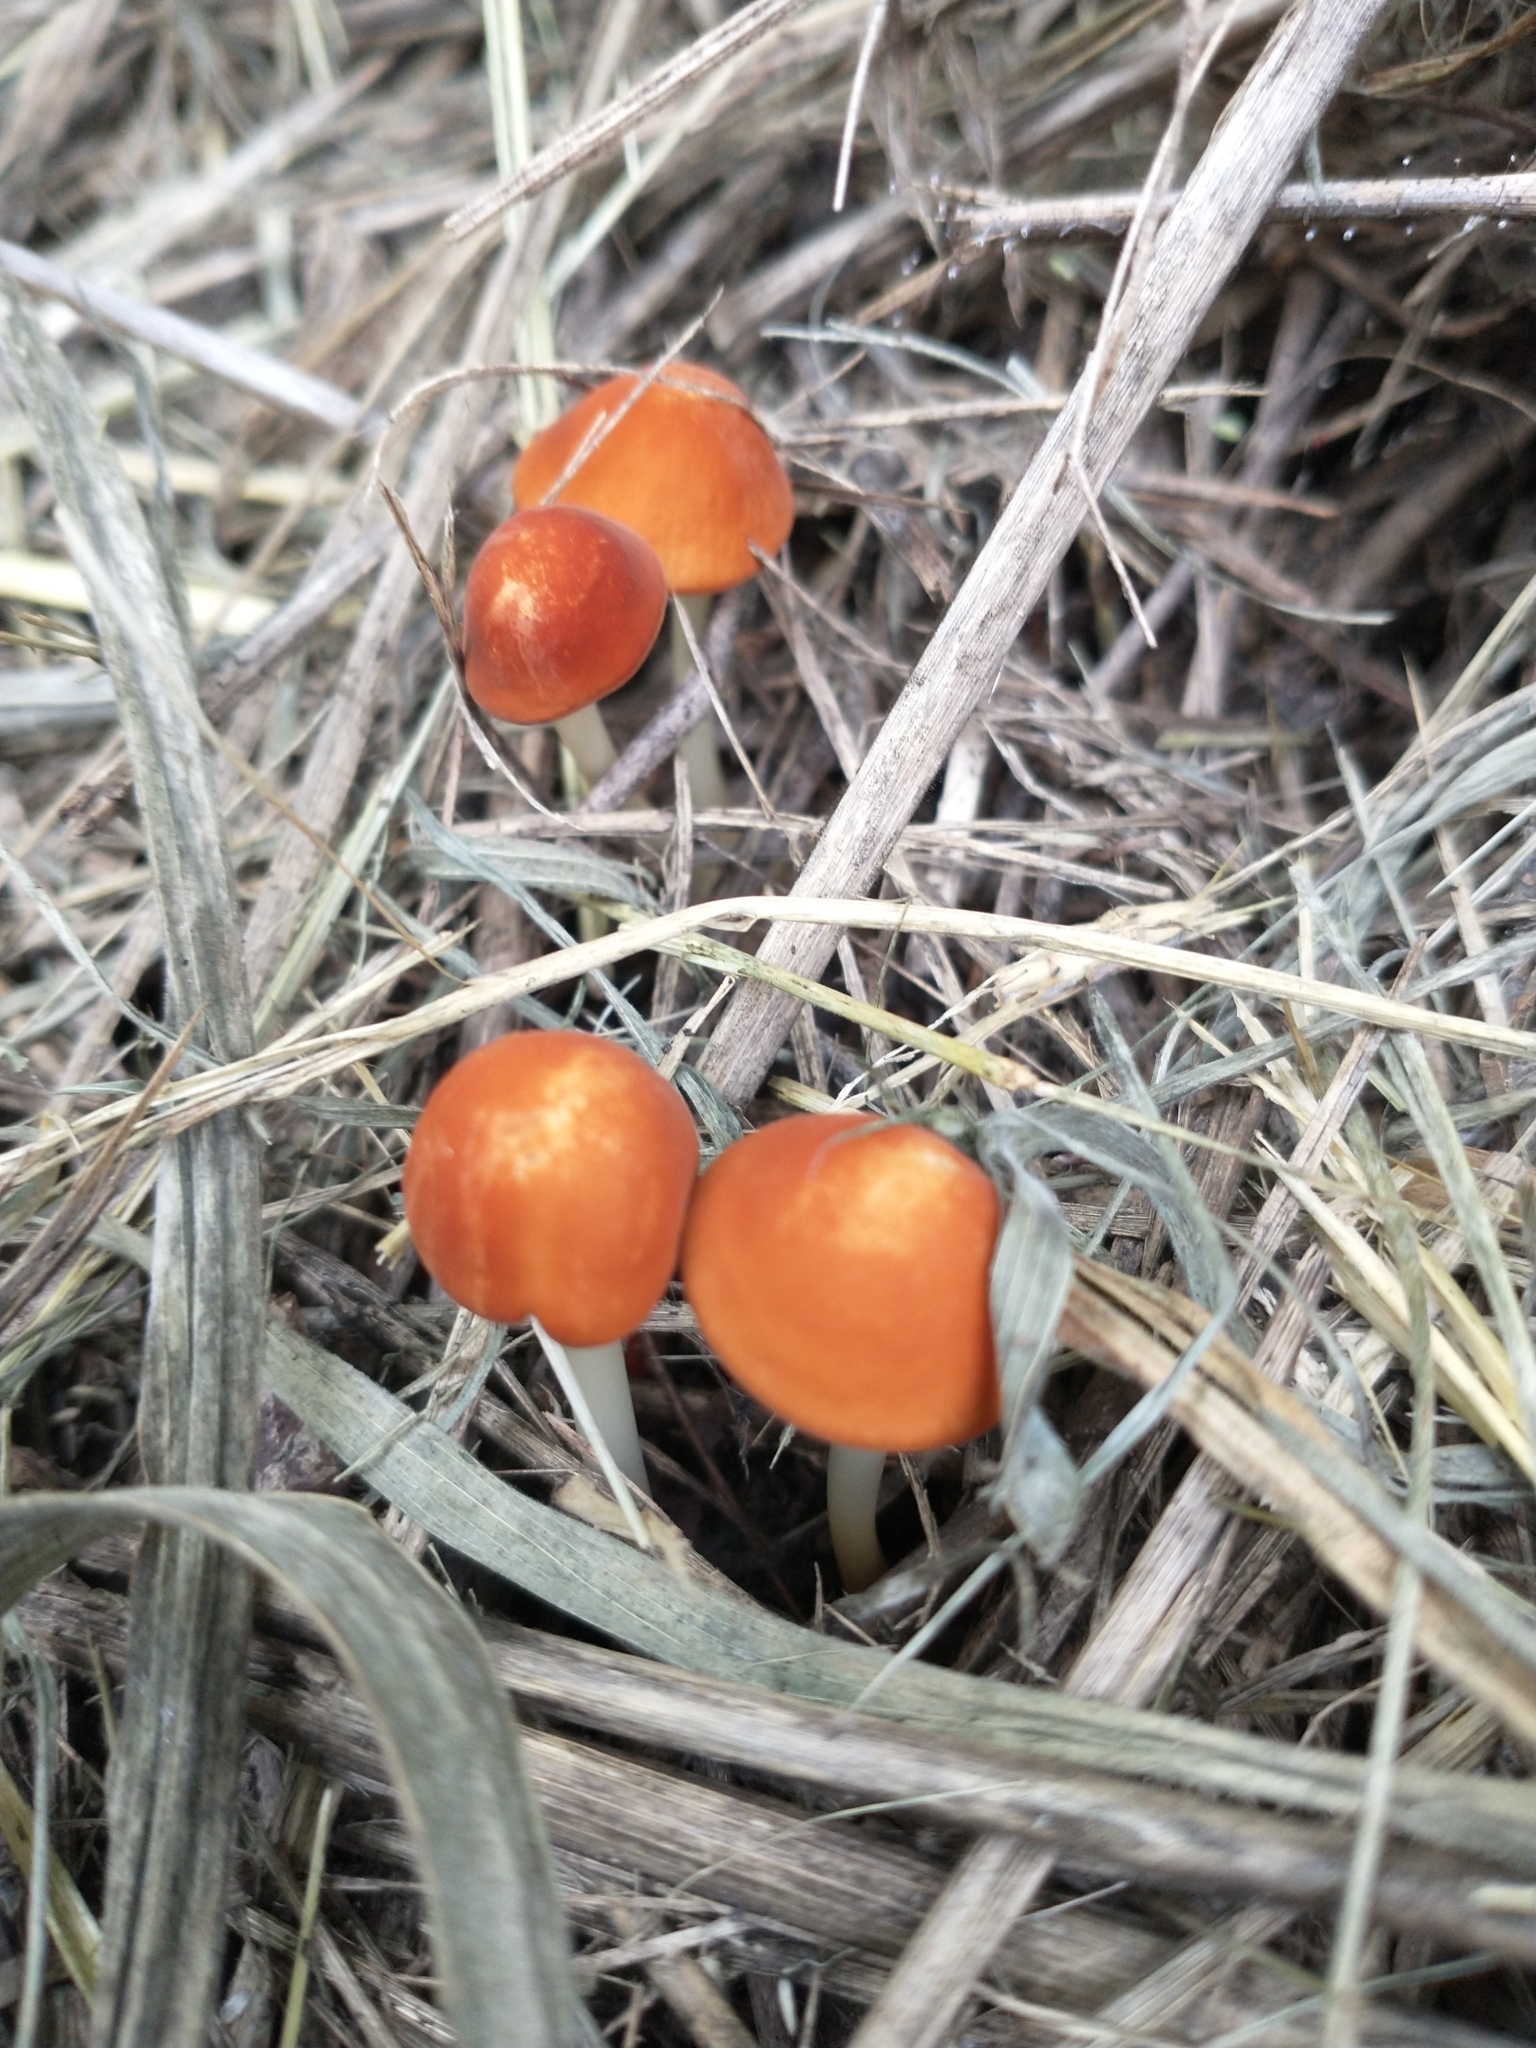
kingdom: Fungi
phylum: Basidiomycota
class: Agaricomycetes
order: Agaricales
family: Marasmiaceae
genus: Marasmius
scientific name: Marasmius vagus
